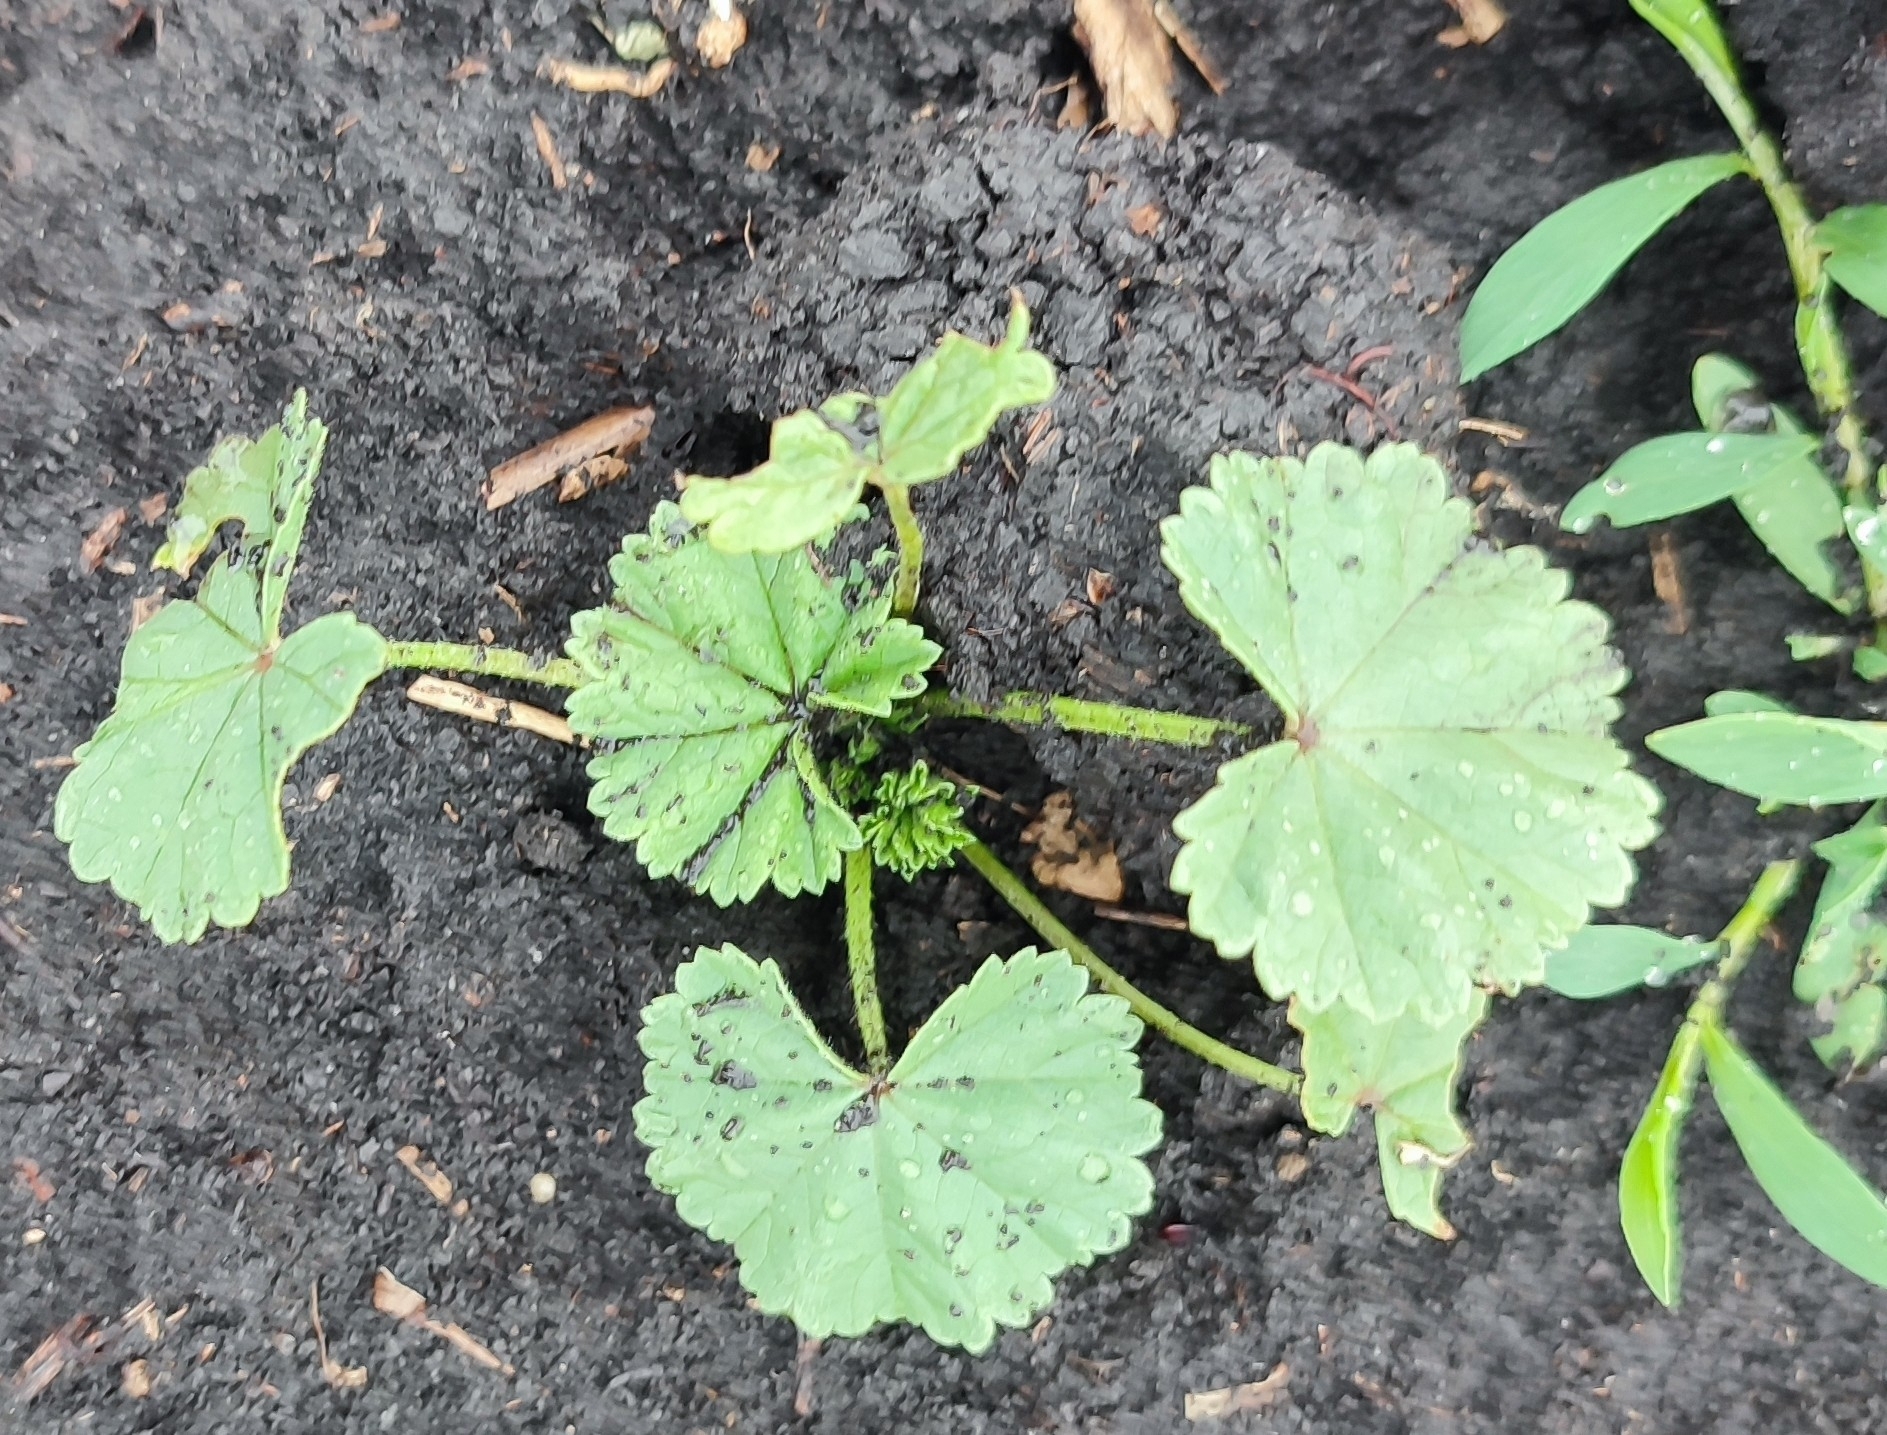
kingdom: Plantae
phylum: Tracheophyta
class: Magnoliopsida
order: Malvales
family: Malvaceae
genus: Malva
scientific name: Malva pusilla
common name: Small mallow
